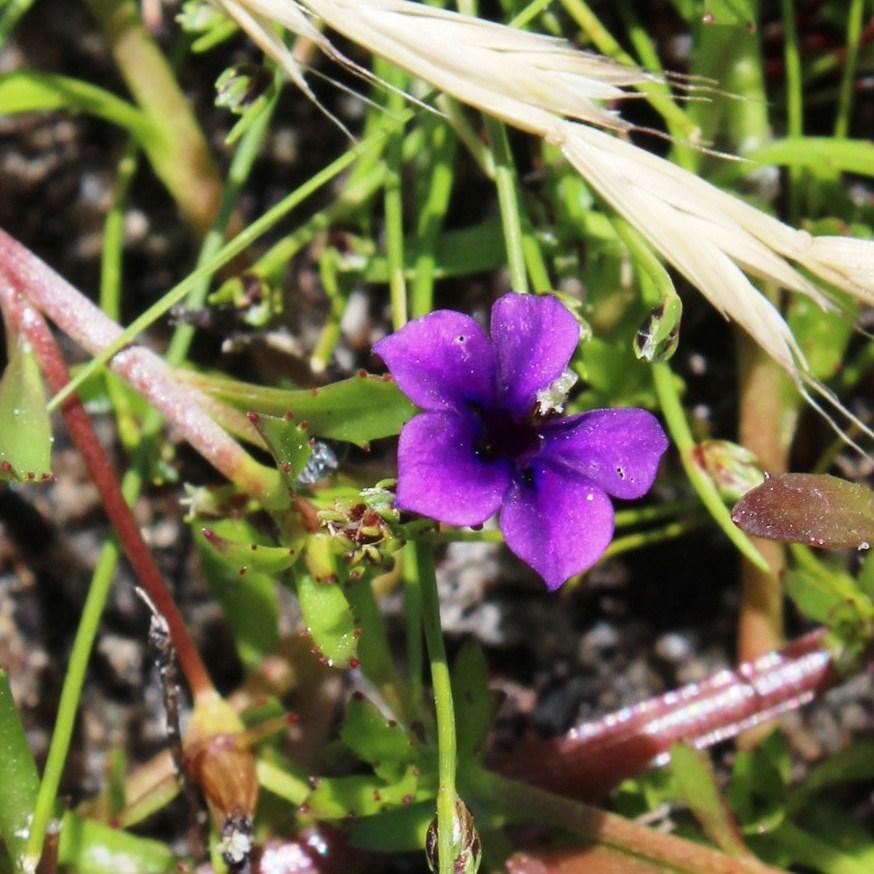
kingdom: Plantae
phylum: Tracheophyta
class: Magnoliopsida
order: Asterales
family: Campanulaceae
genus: Monopsis
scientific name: Monopsis debilis
